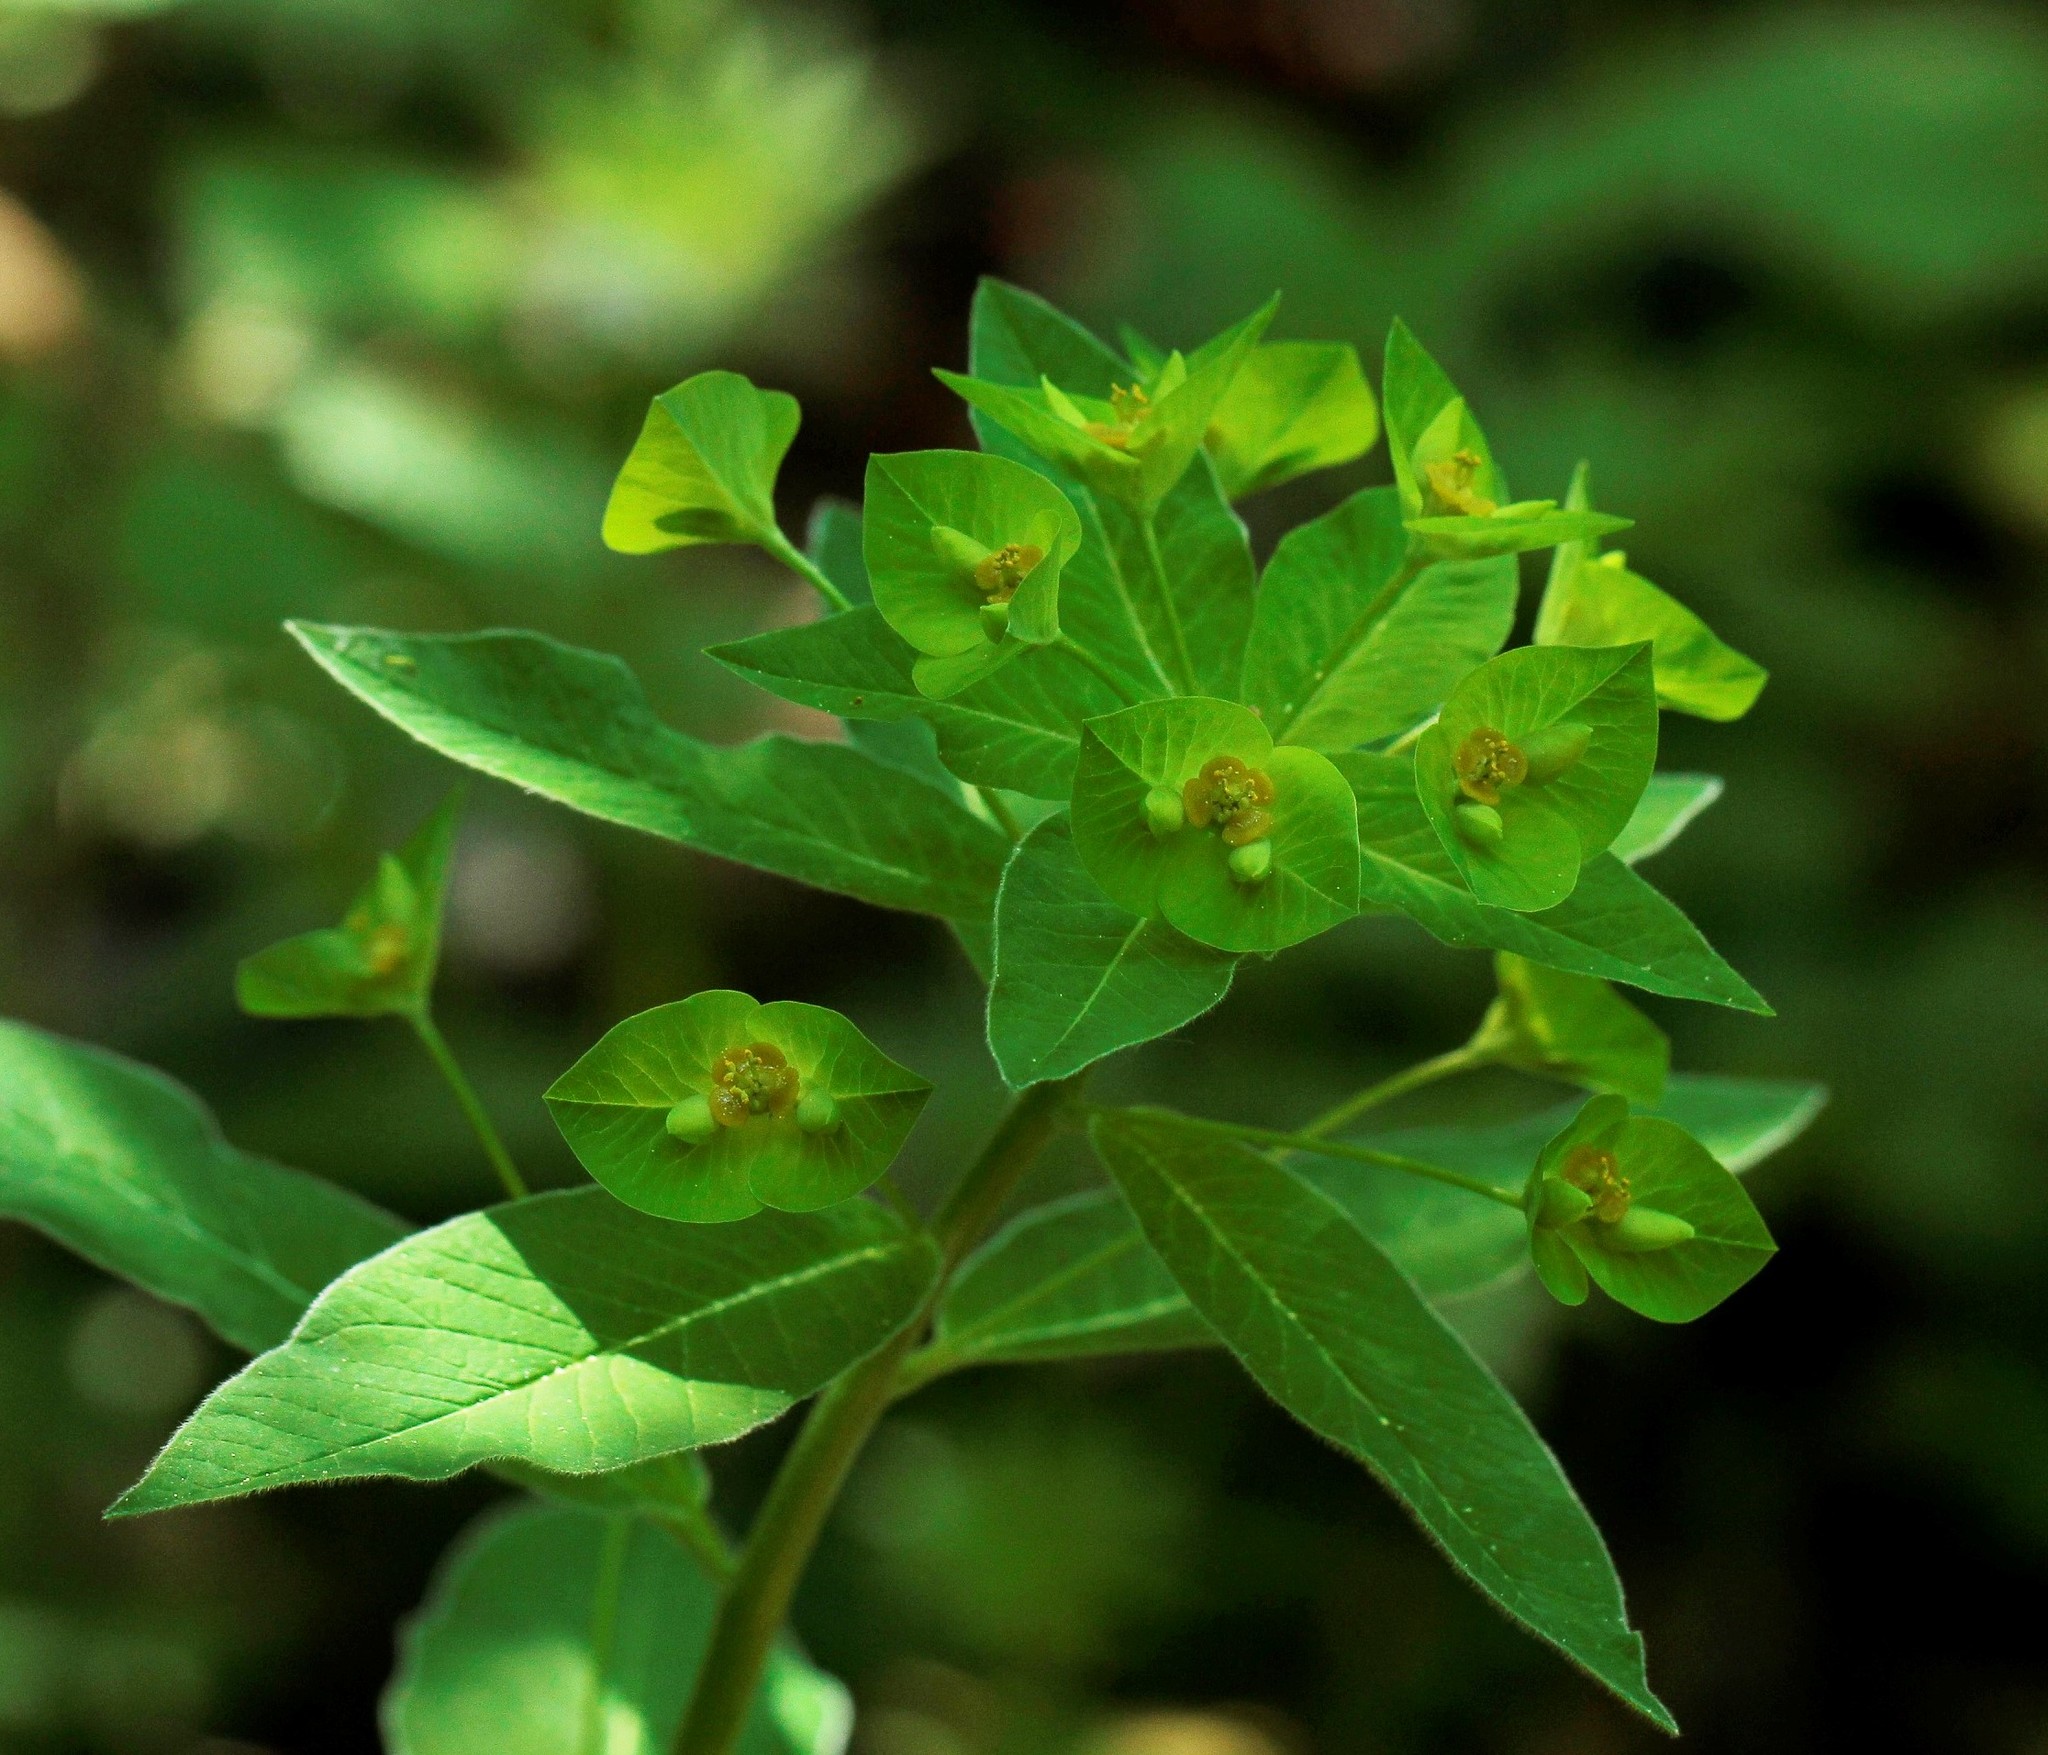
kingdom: Plantae
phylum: Tracheophyta
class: Magnoliopsida
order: Malpighiales
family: Euphorbiaceae
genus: Euphorbia
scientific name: Euphorbia squamosa
